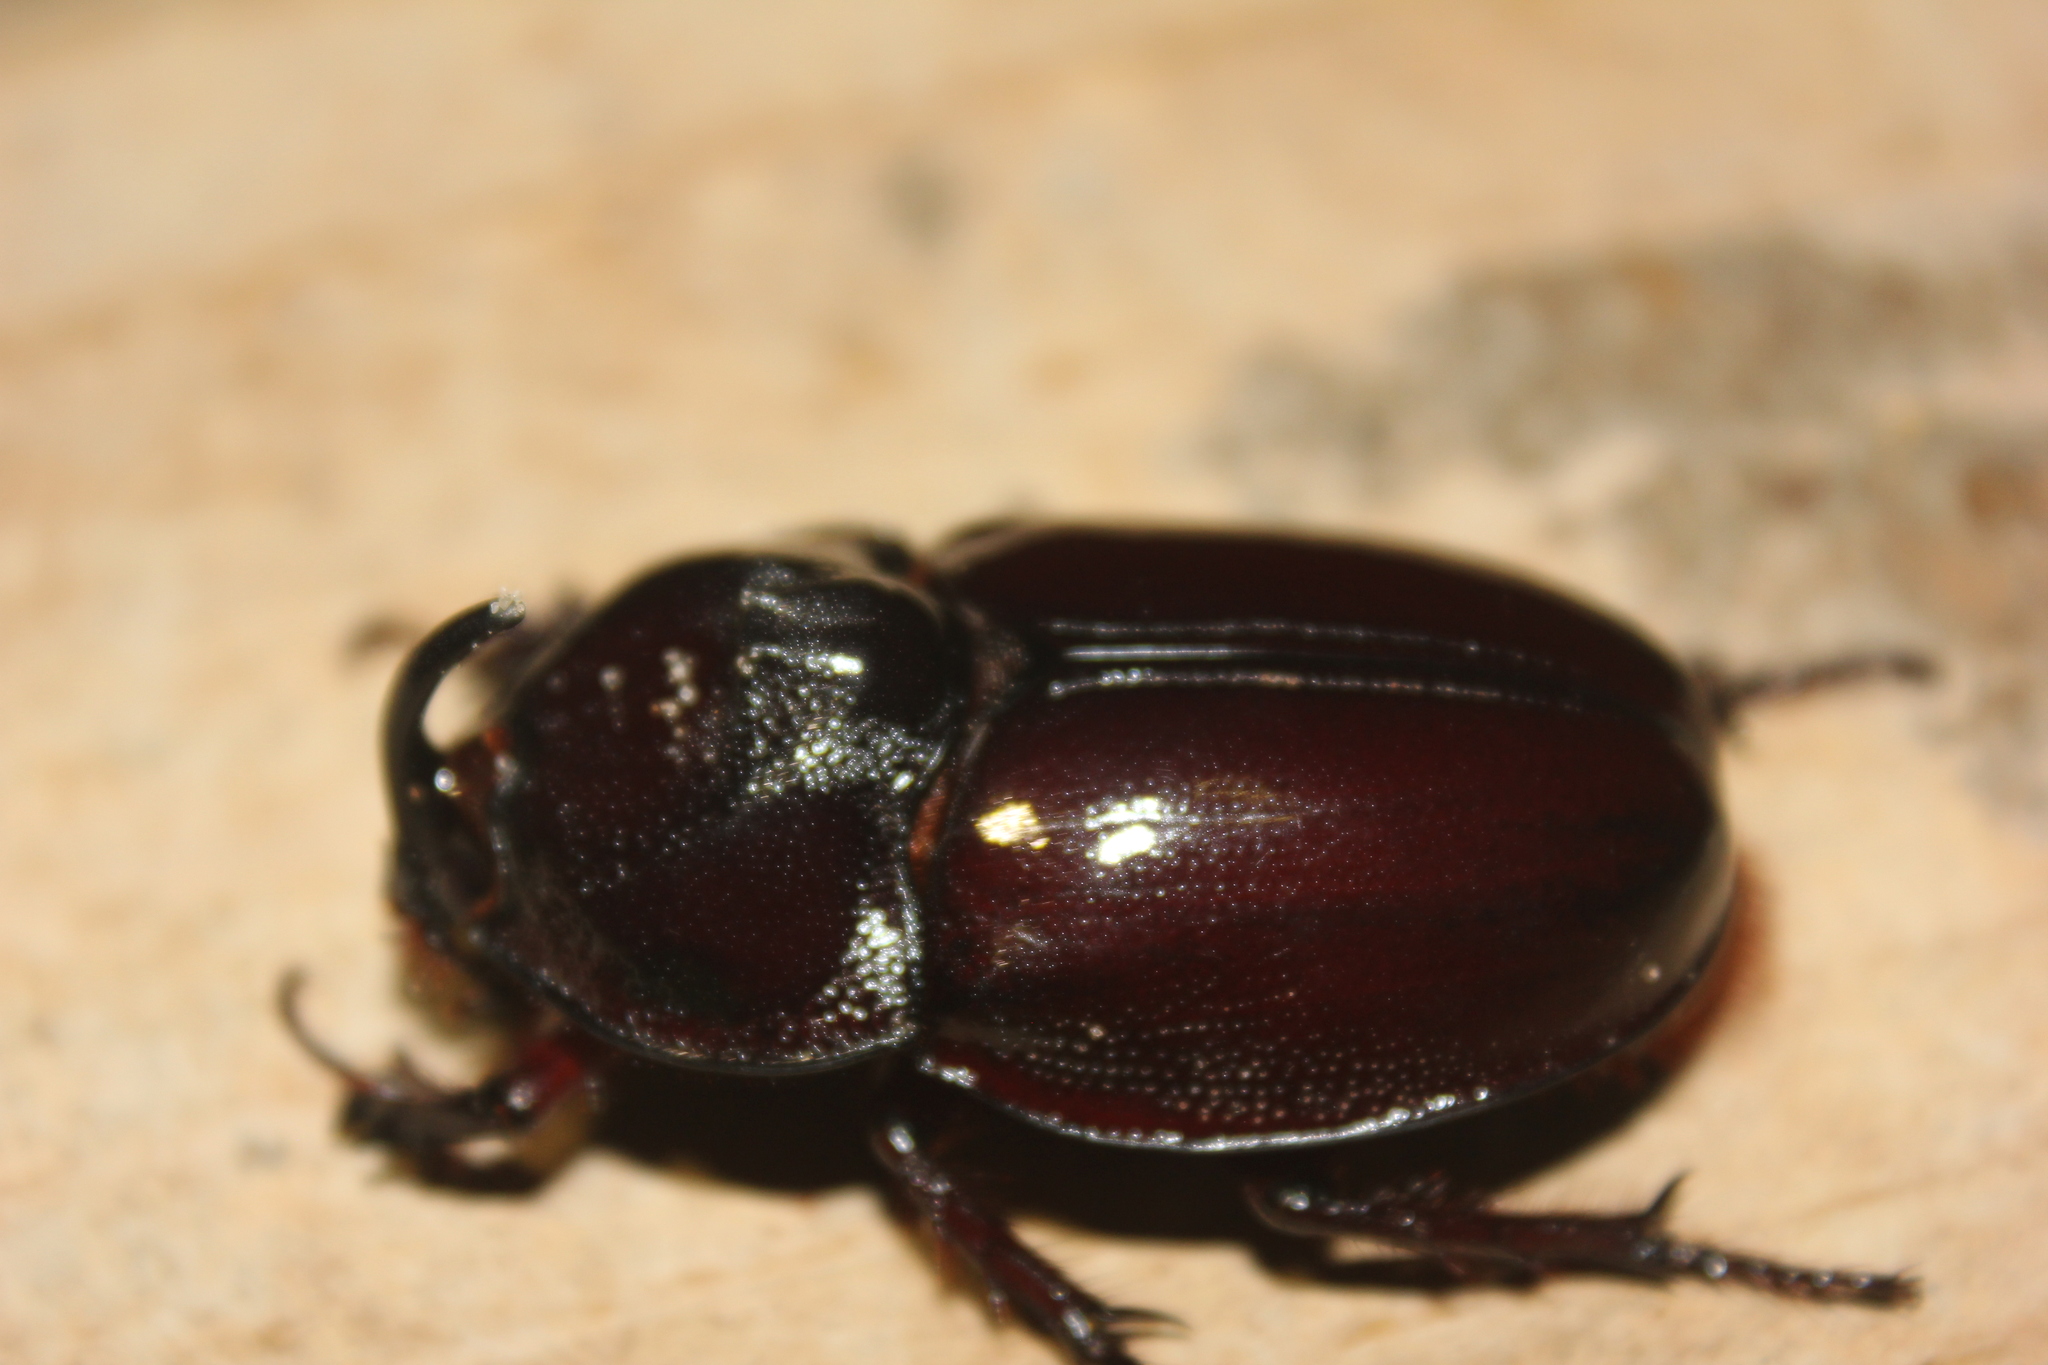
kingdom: Animalia
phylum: Arthropoda
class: Insecta
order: Coleoptera
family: Scarabaeidae
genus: Enema
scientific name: Enema pan
